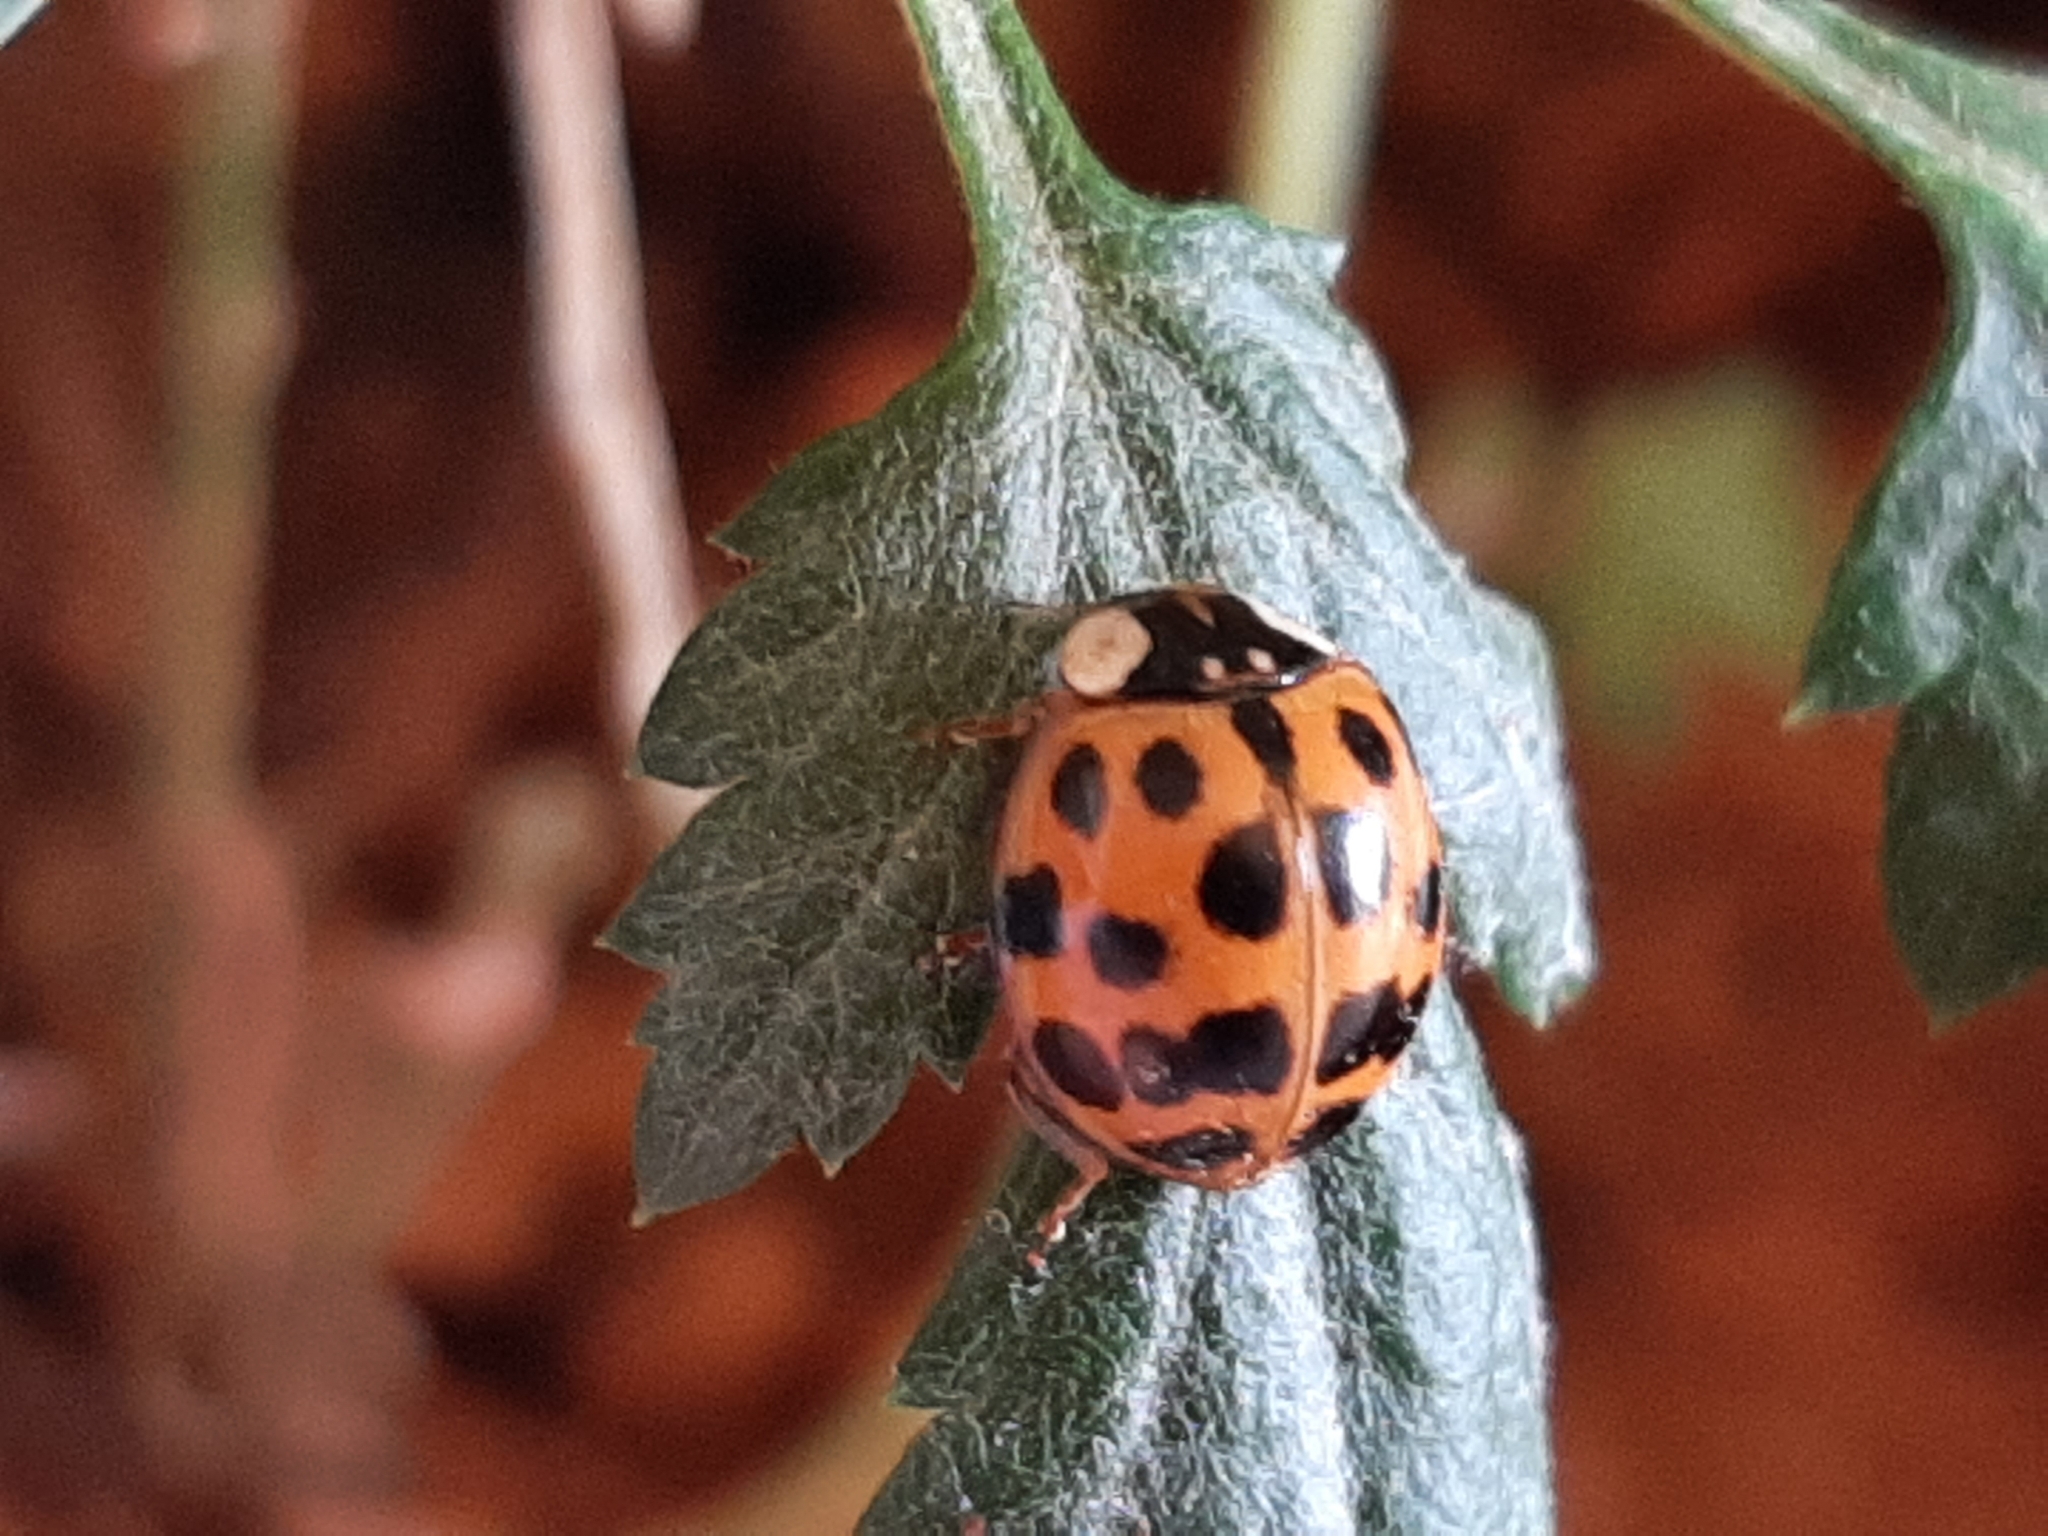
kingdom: Animalia
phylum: Arthropoda
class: Insecta
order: Coleoptera
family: Coccinellidae
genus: Harmonia
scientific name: Harmonia axyridis
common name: Harlequin ladybird
